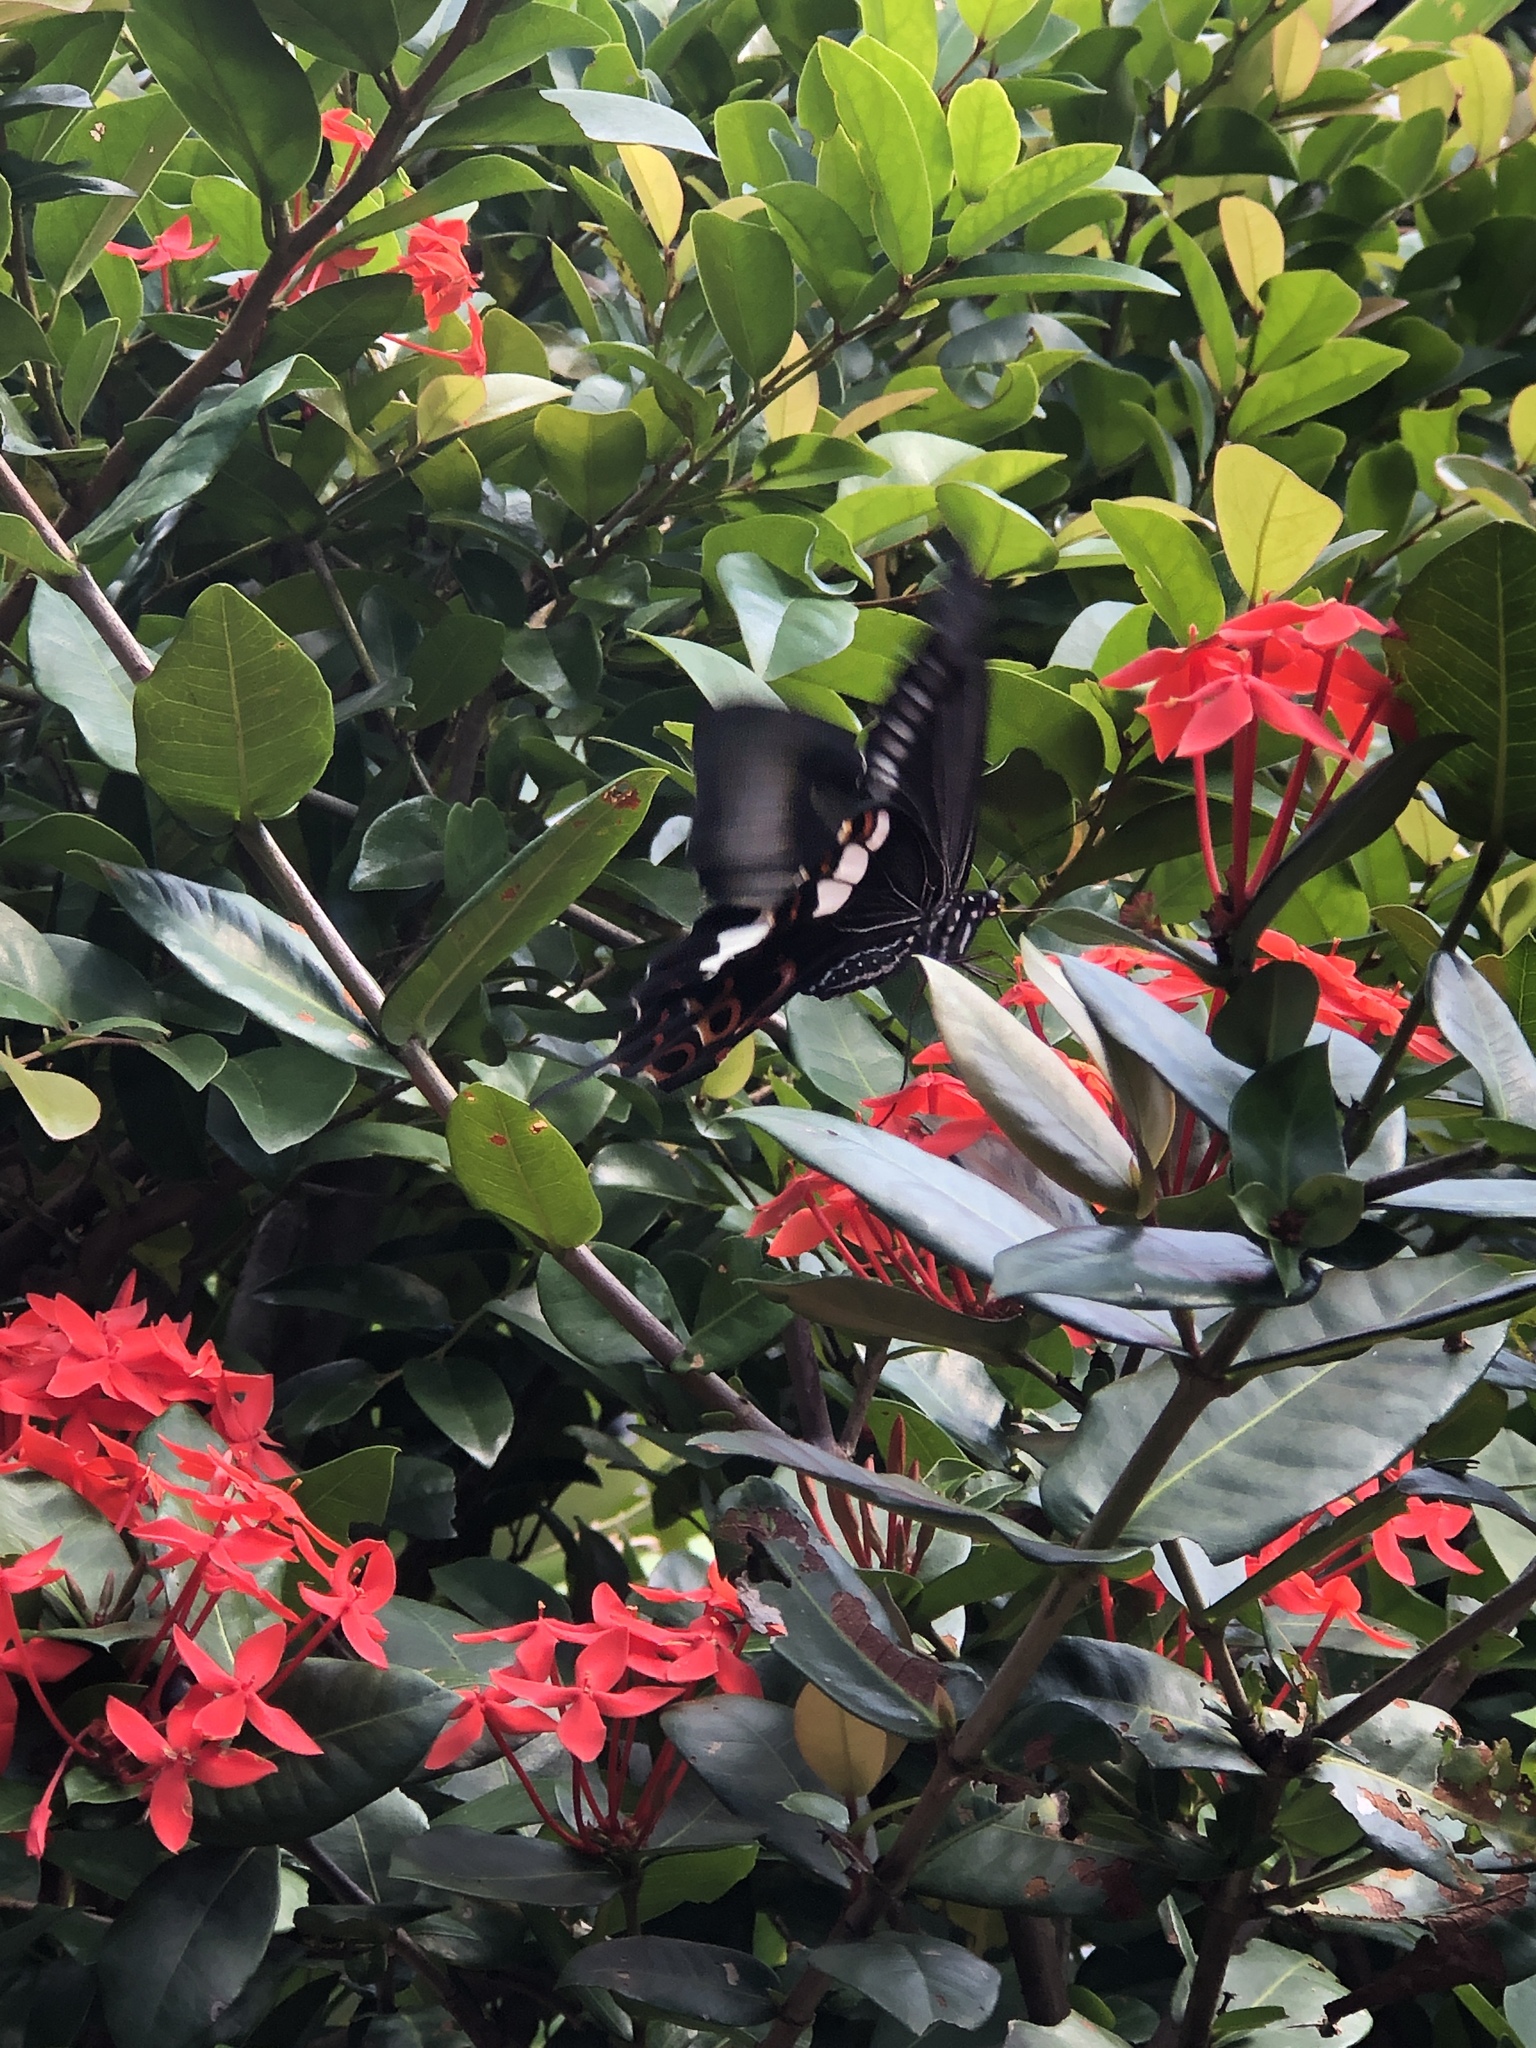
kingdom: Animalia
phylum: Arthropoda
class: Insecta
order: Lepidoptera
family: Papilionidae
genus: Papilio
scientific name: Papilio helenus
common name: Red helen
